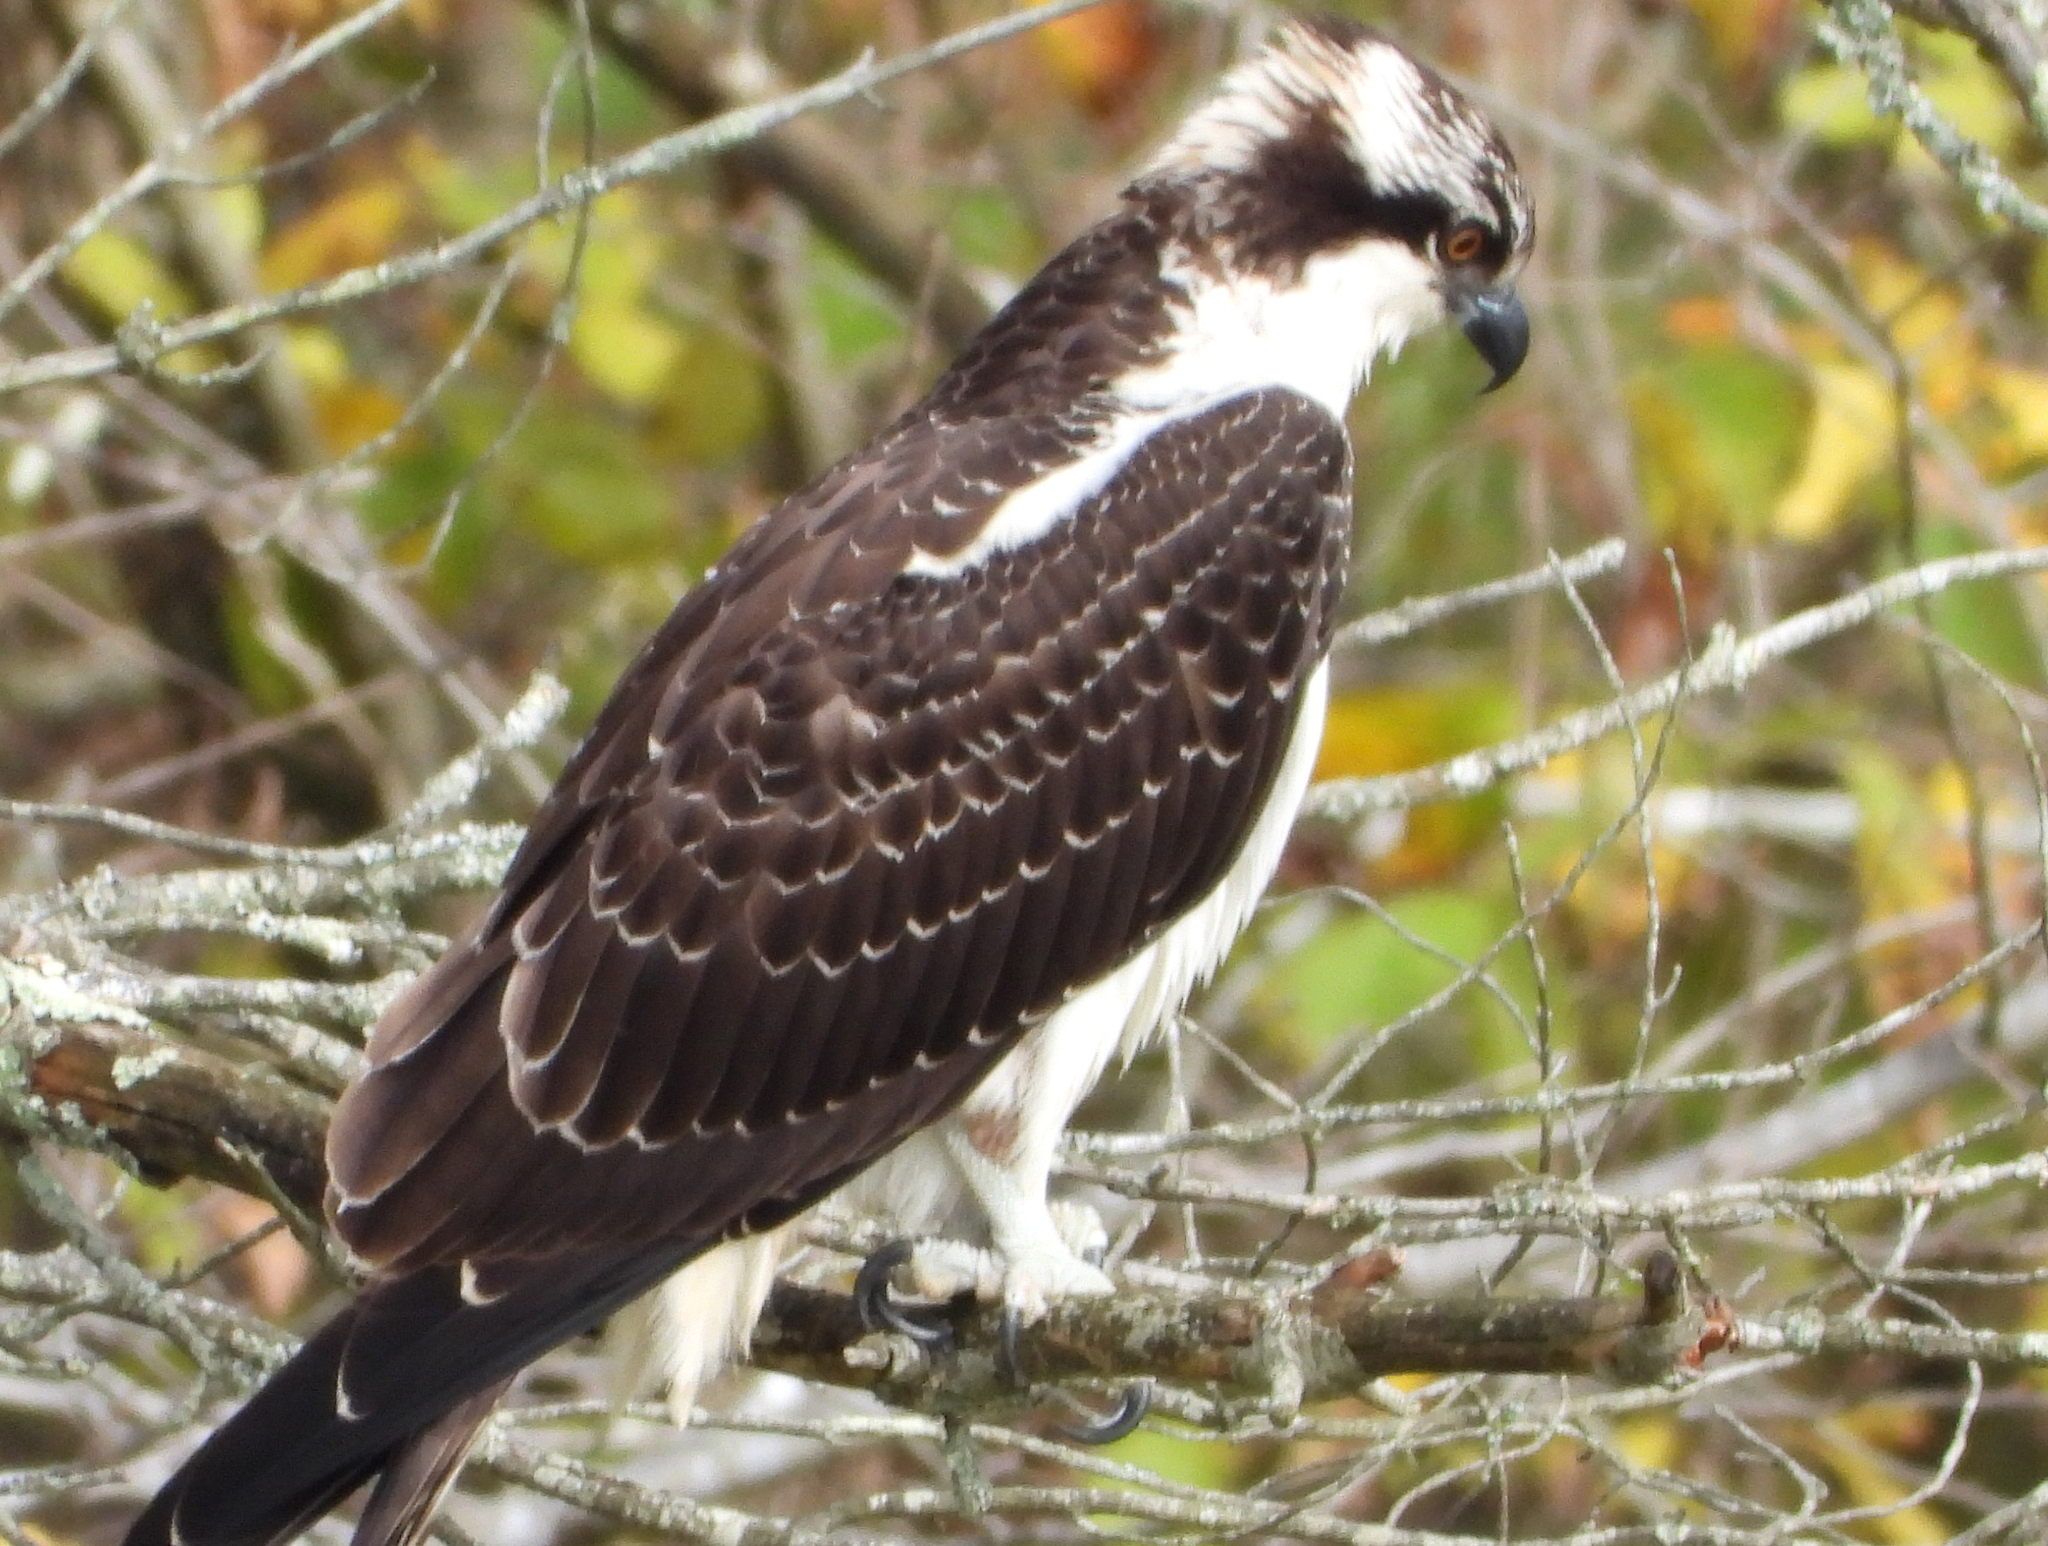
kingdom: Animalia
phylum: Chordata
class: Aves
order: Accipitriformes
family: Pandionidae
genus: Pandion
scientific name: Pandion haliaetus
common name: Osprey
